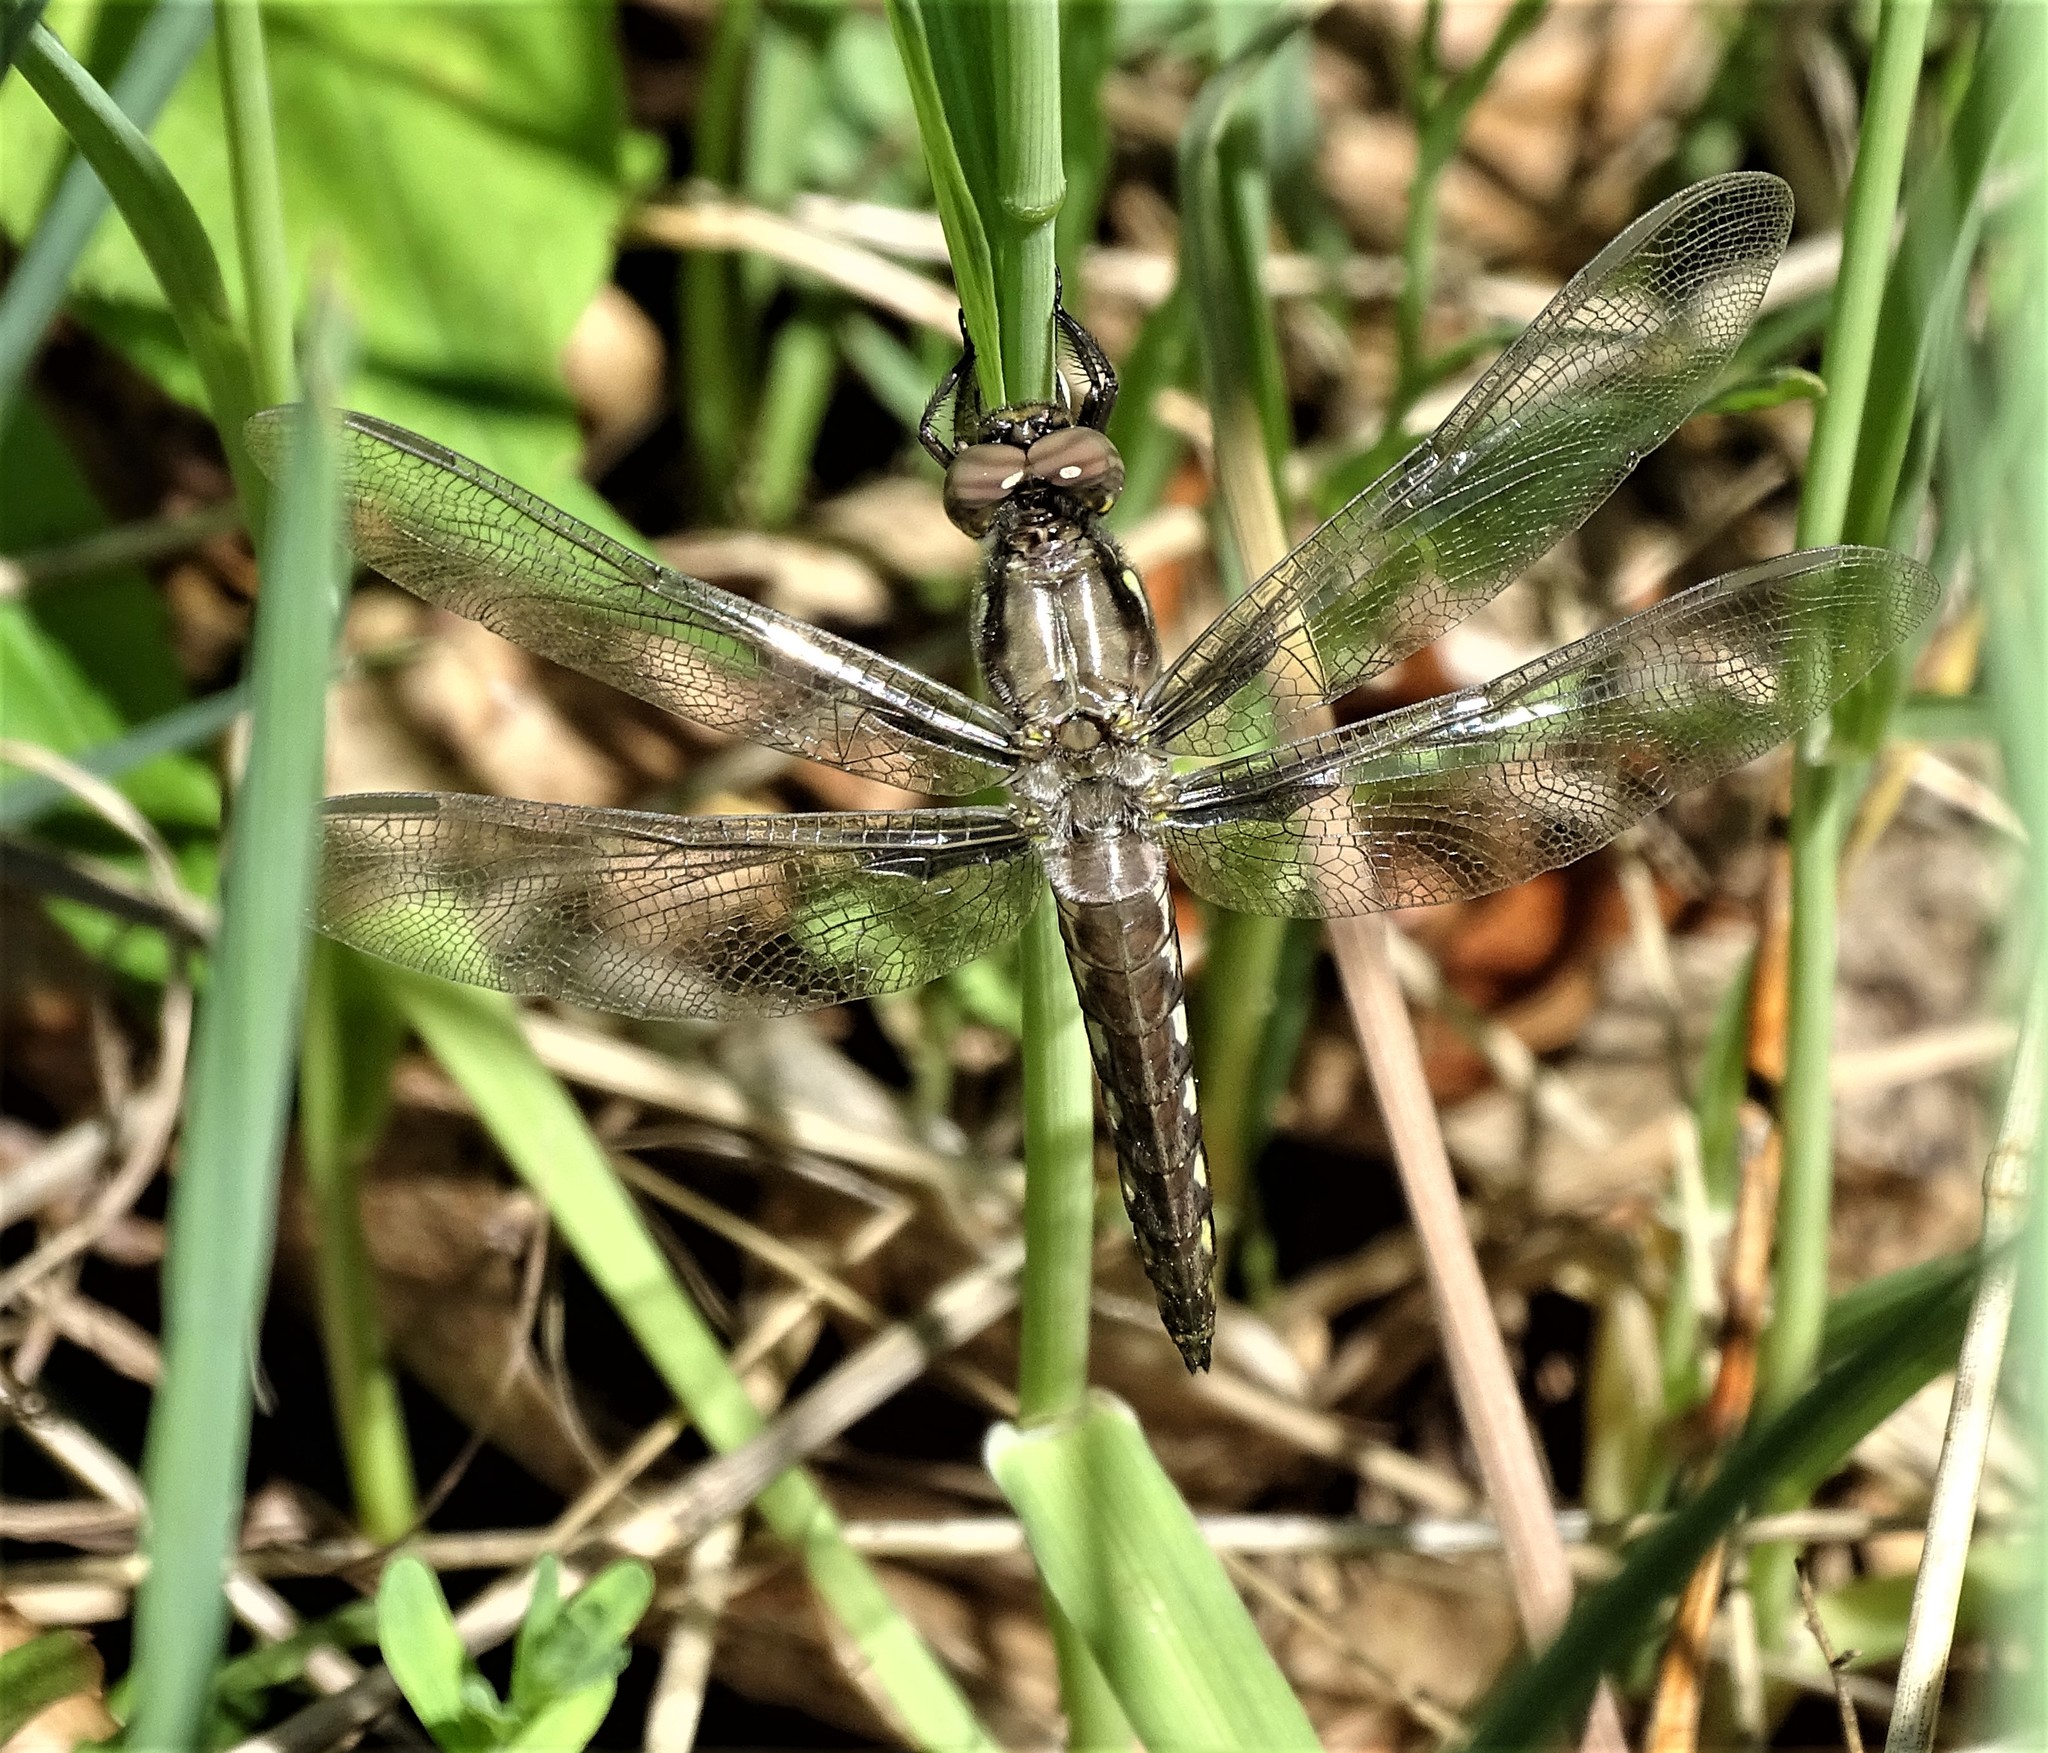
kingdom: Animalia
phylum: Arthropoda
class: Insecta
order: Odonata
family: Libellulidae
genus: Plathemis
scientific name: Plathemis lydia
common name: Common whitetail
